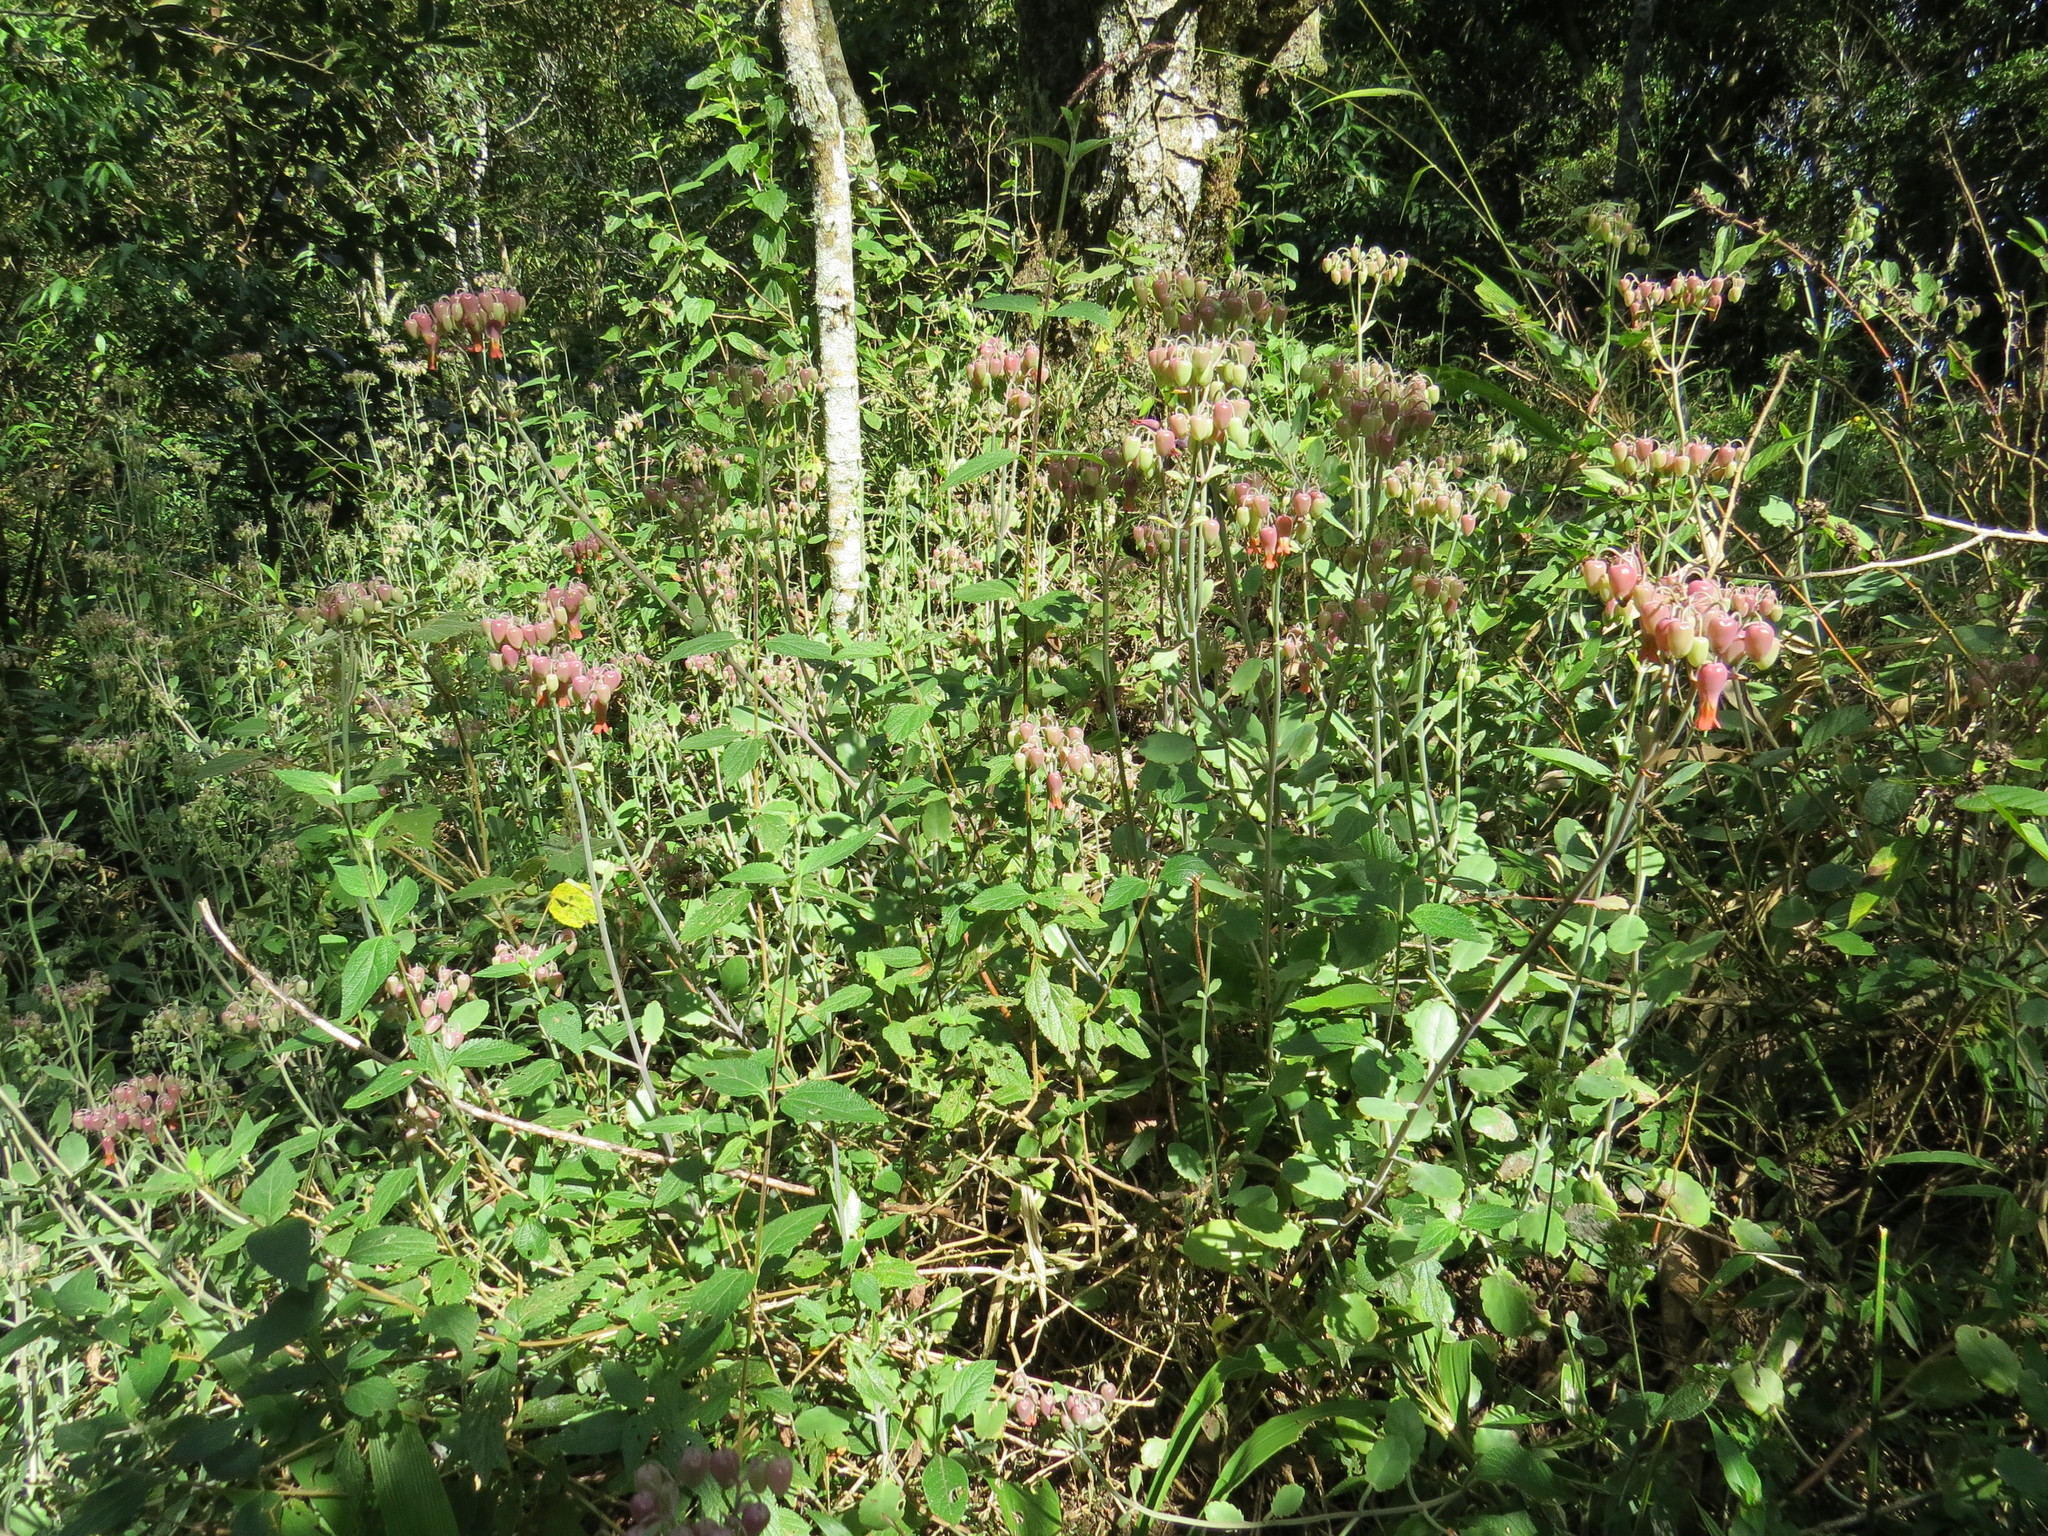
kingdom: Plantae
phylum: Tracheophyta
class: Magnoliopsida
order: Saxifragales
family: Crassulaceae
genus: Kalanchoe
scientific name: Kalanchoe fedtschenkoi
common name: Lavender scallops
